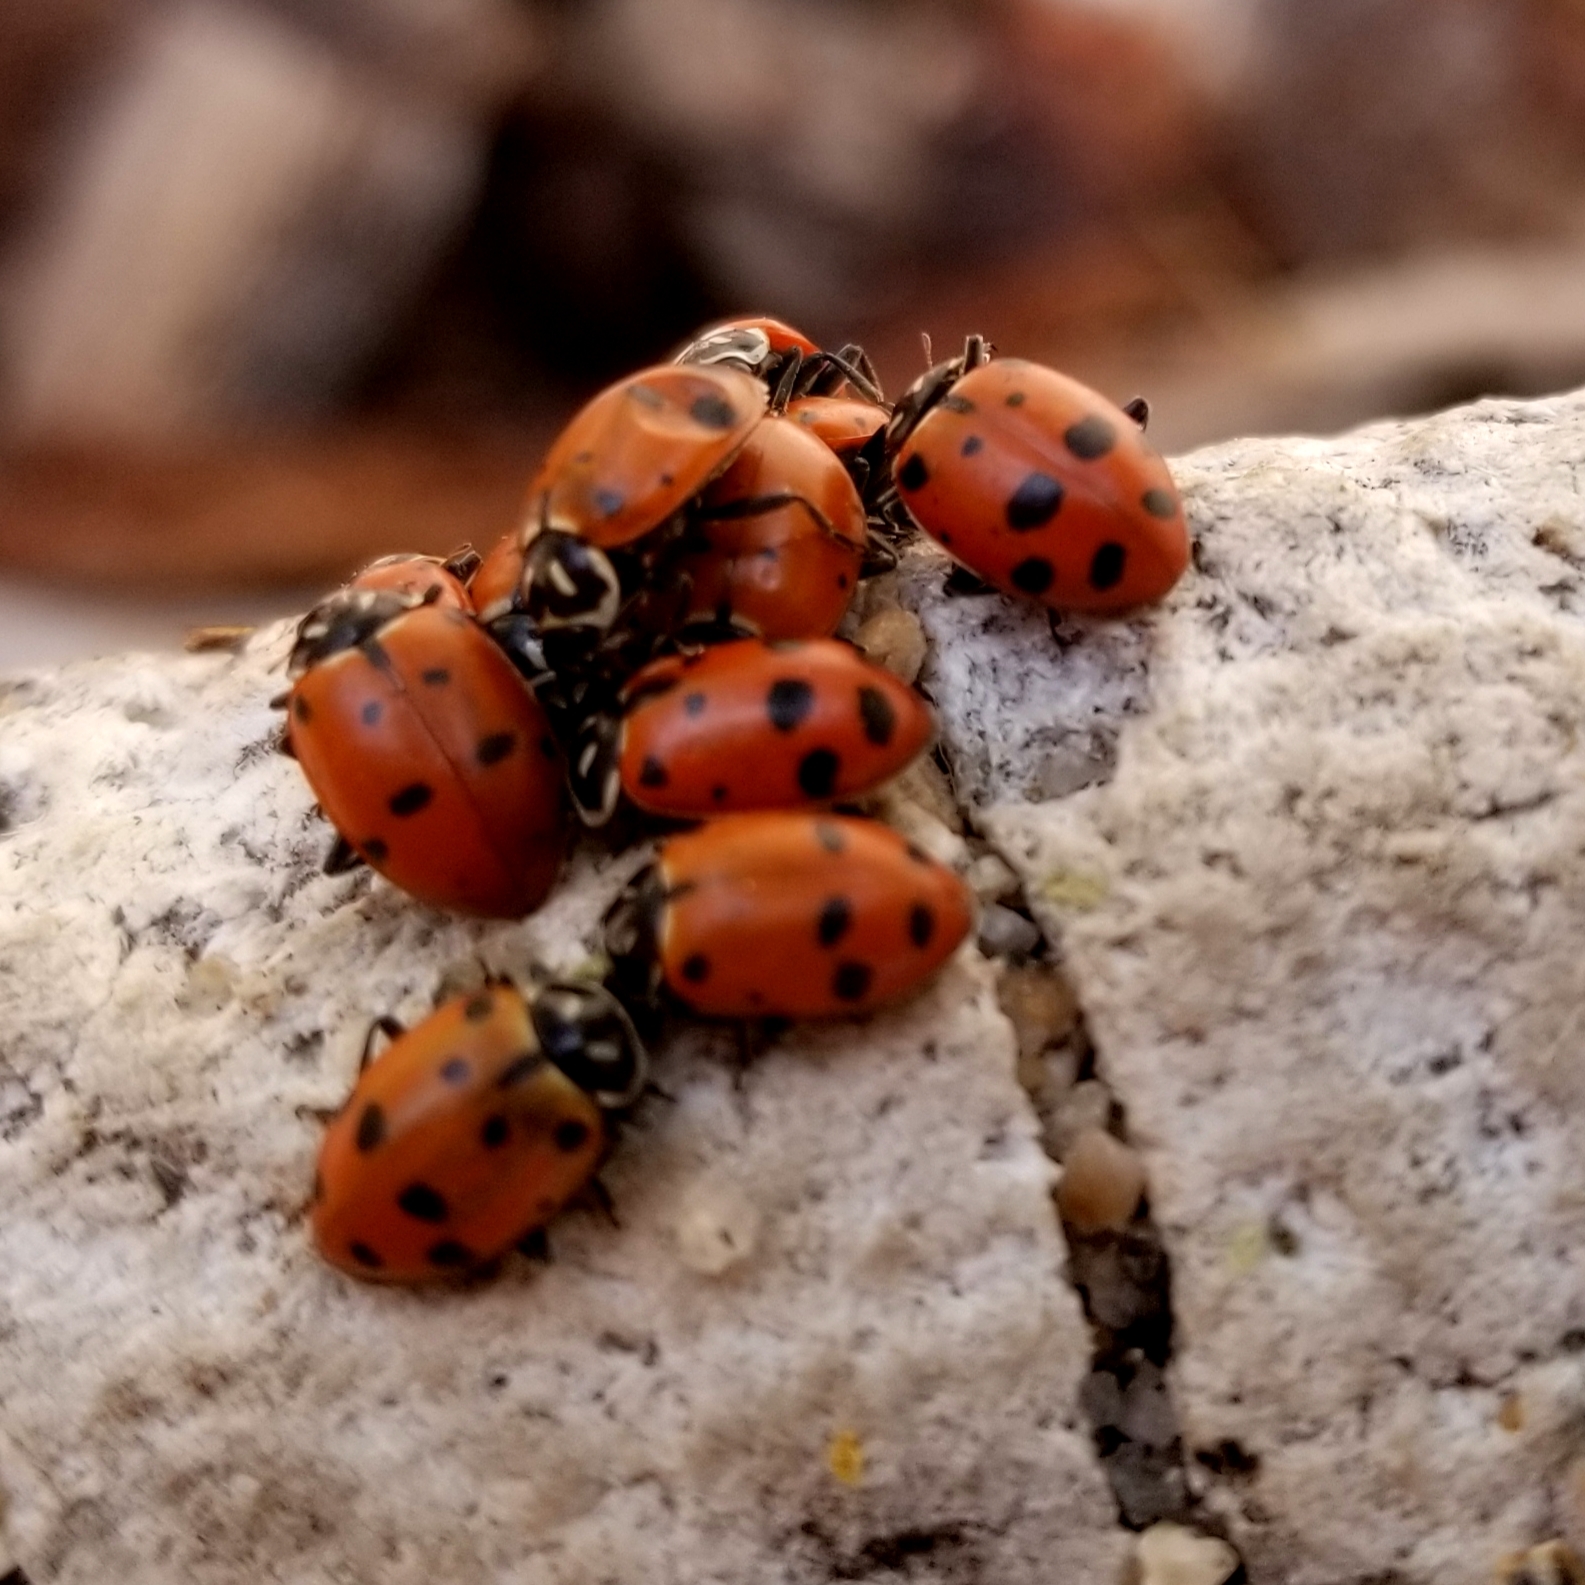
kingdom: Animalia
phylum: Arthropoda
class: Insecta
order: Coleoptera
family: Coccinellidae
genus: Hippodamia
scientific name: Hippodamia convergens
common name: Convergent lady beetle
